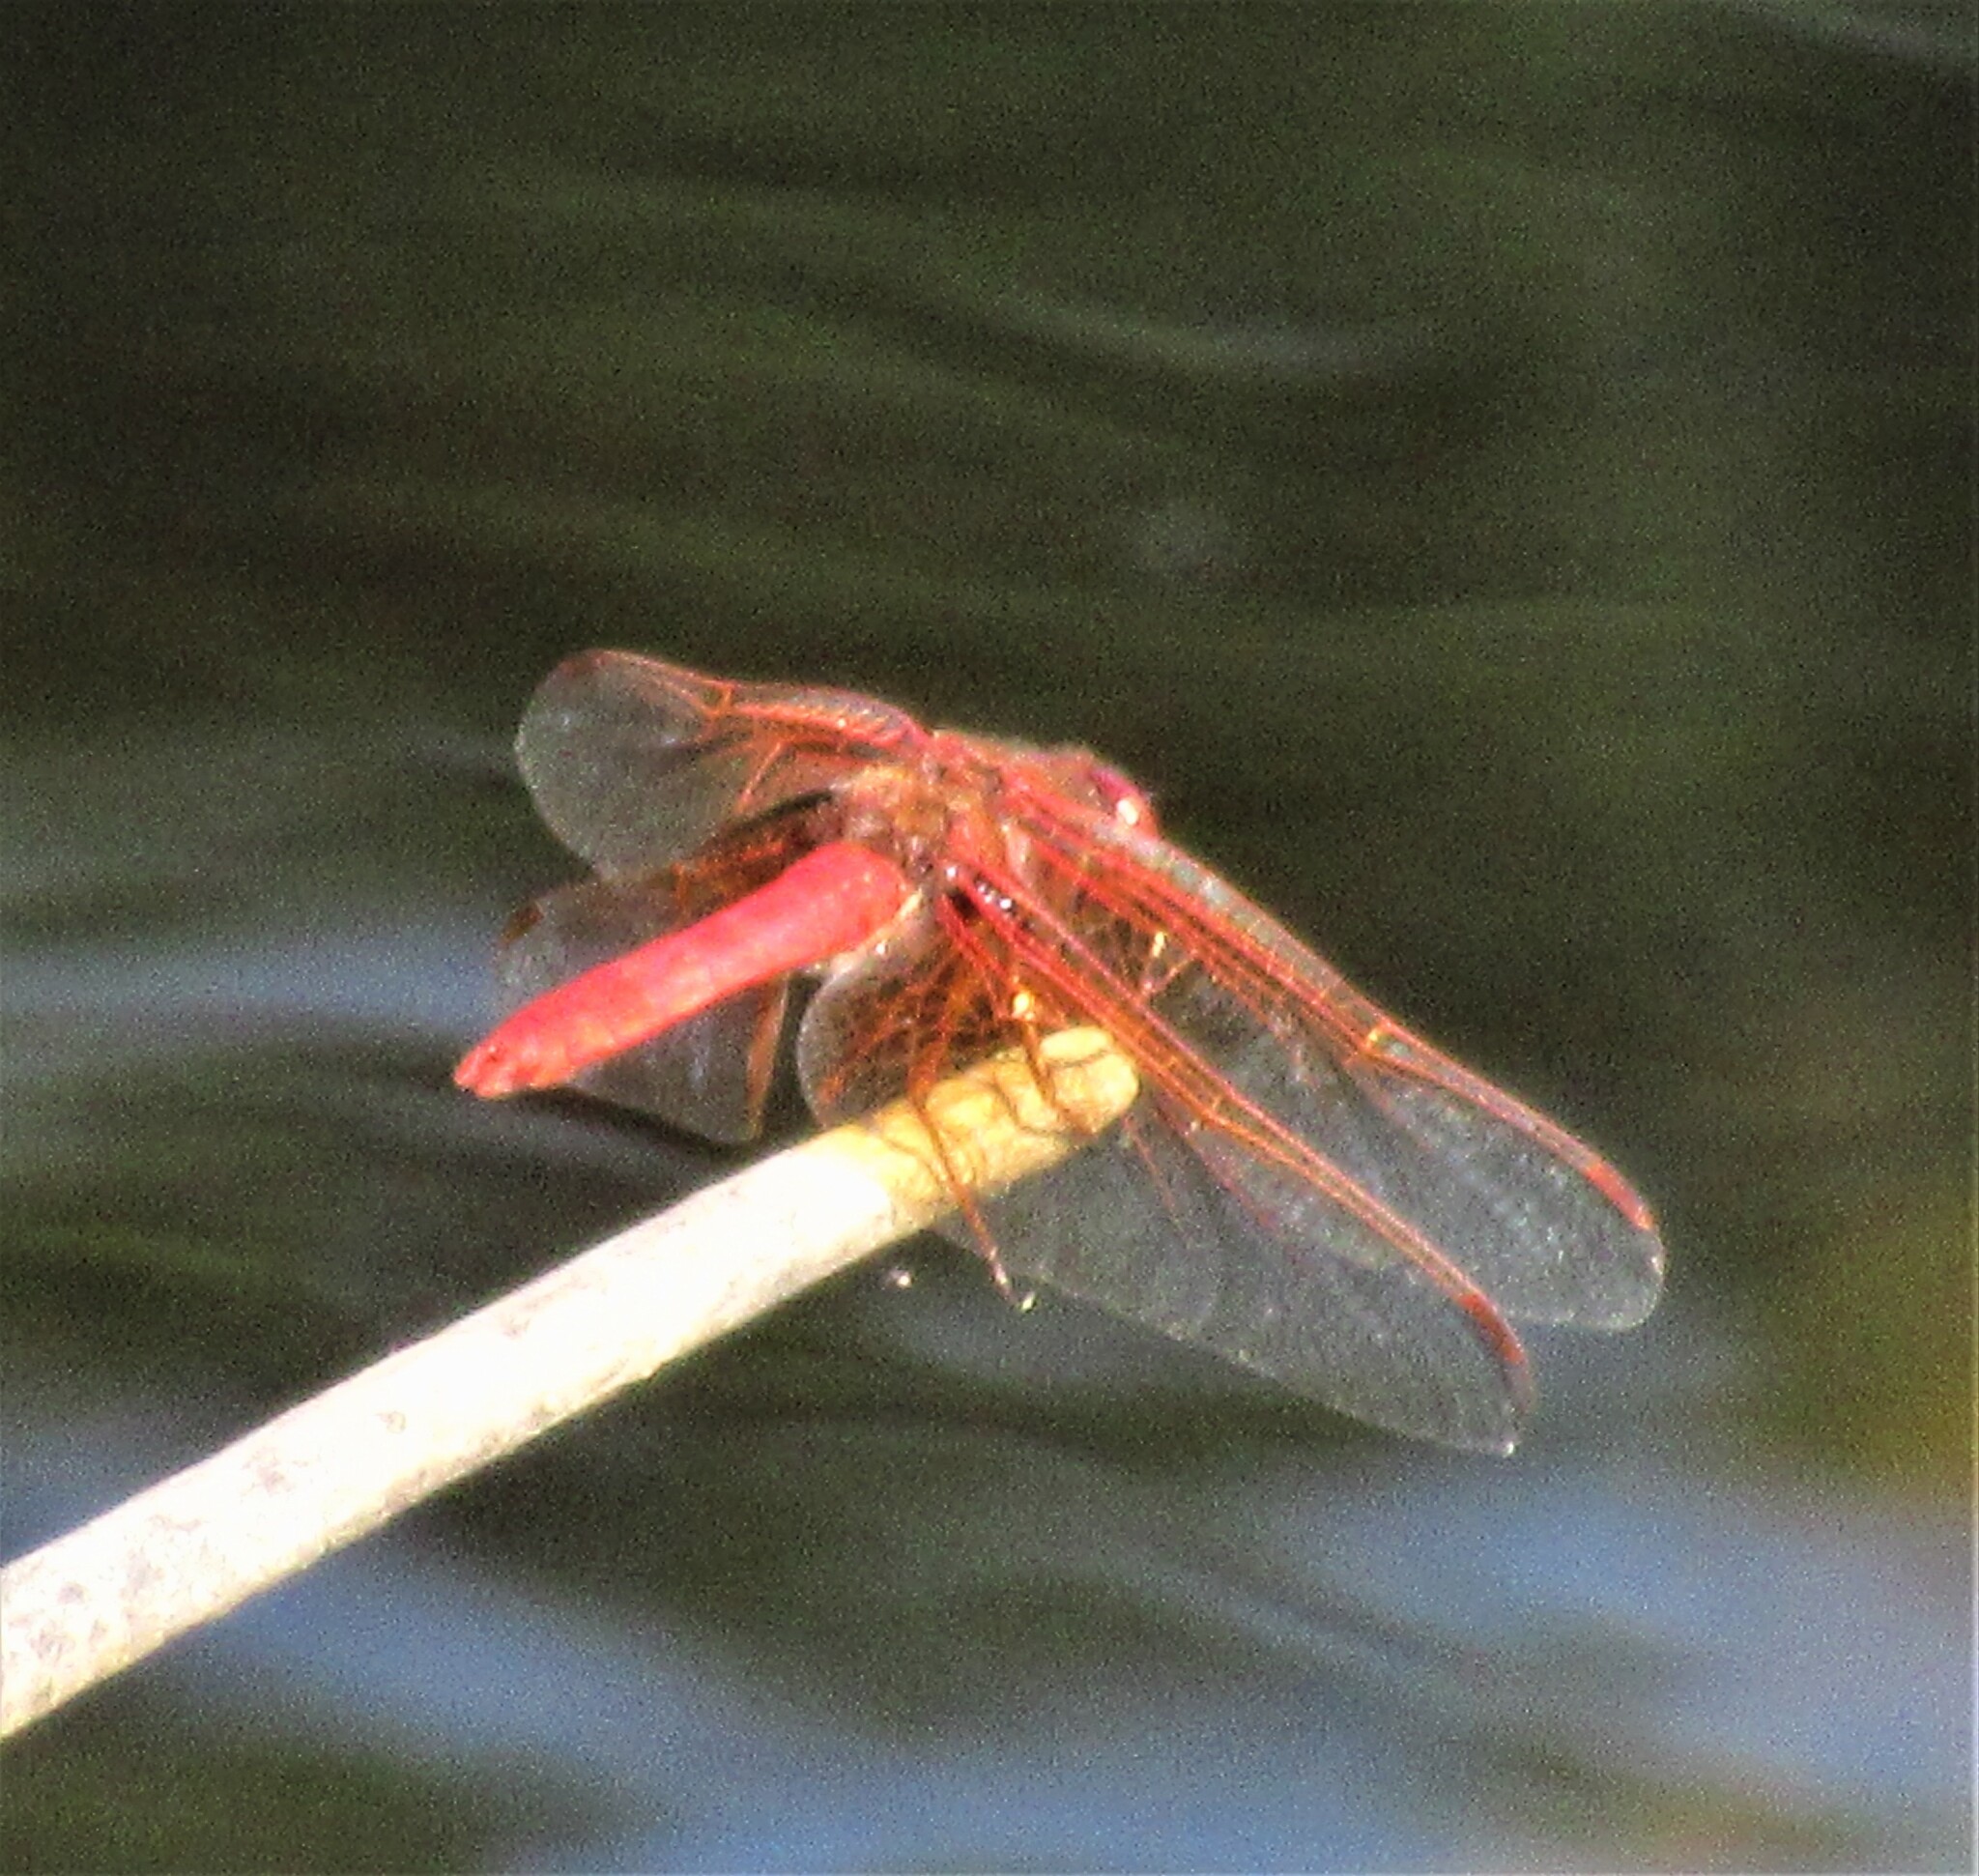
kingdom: Animalia
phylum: Arthropoda
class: Insecta
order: Odonata
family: Libellulidae
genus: Sympetrum
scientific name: Sympetrum illotum
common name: Cardinal meadowhawk
